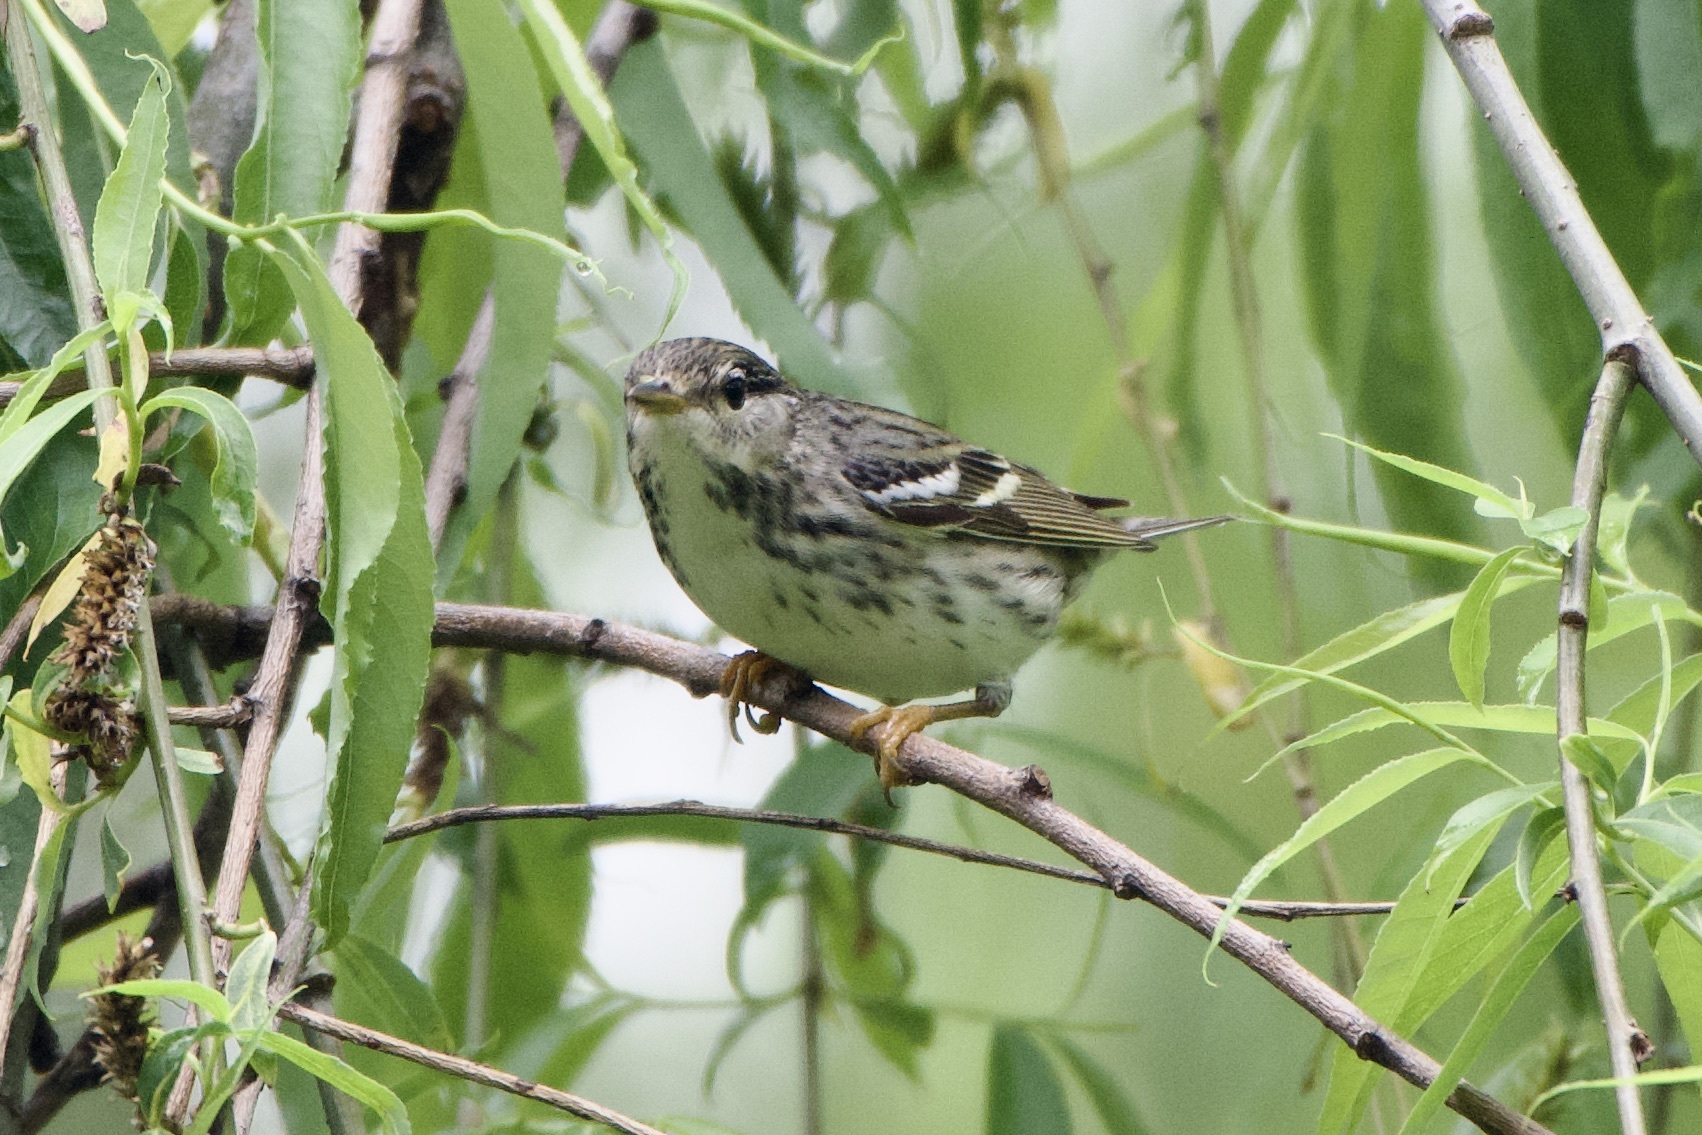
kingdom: Animalia
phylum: Chordata
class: Aves
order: Passeriformes
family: Parulidae
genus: Setophaga
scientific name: Setophaga striata
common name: Blackpoll warbler
